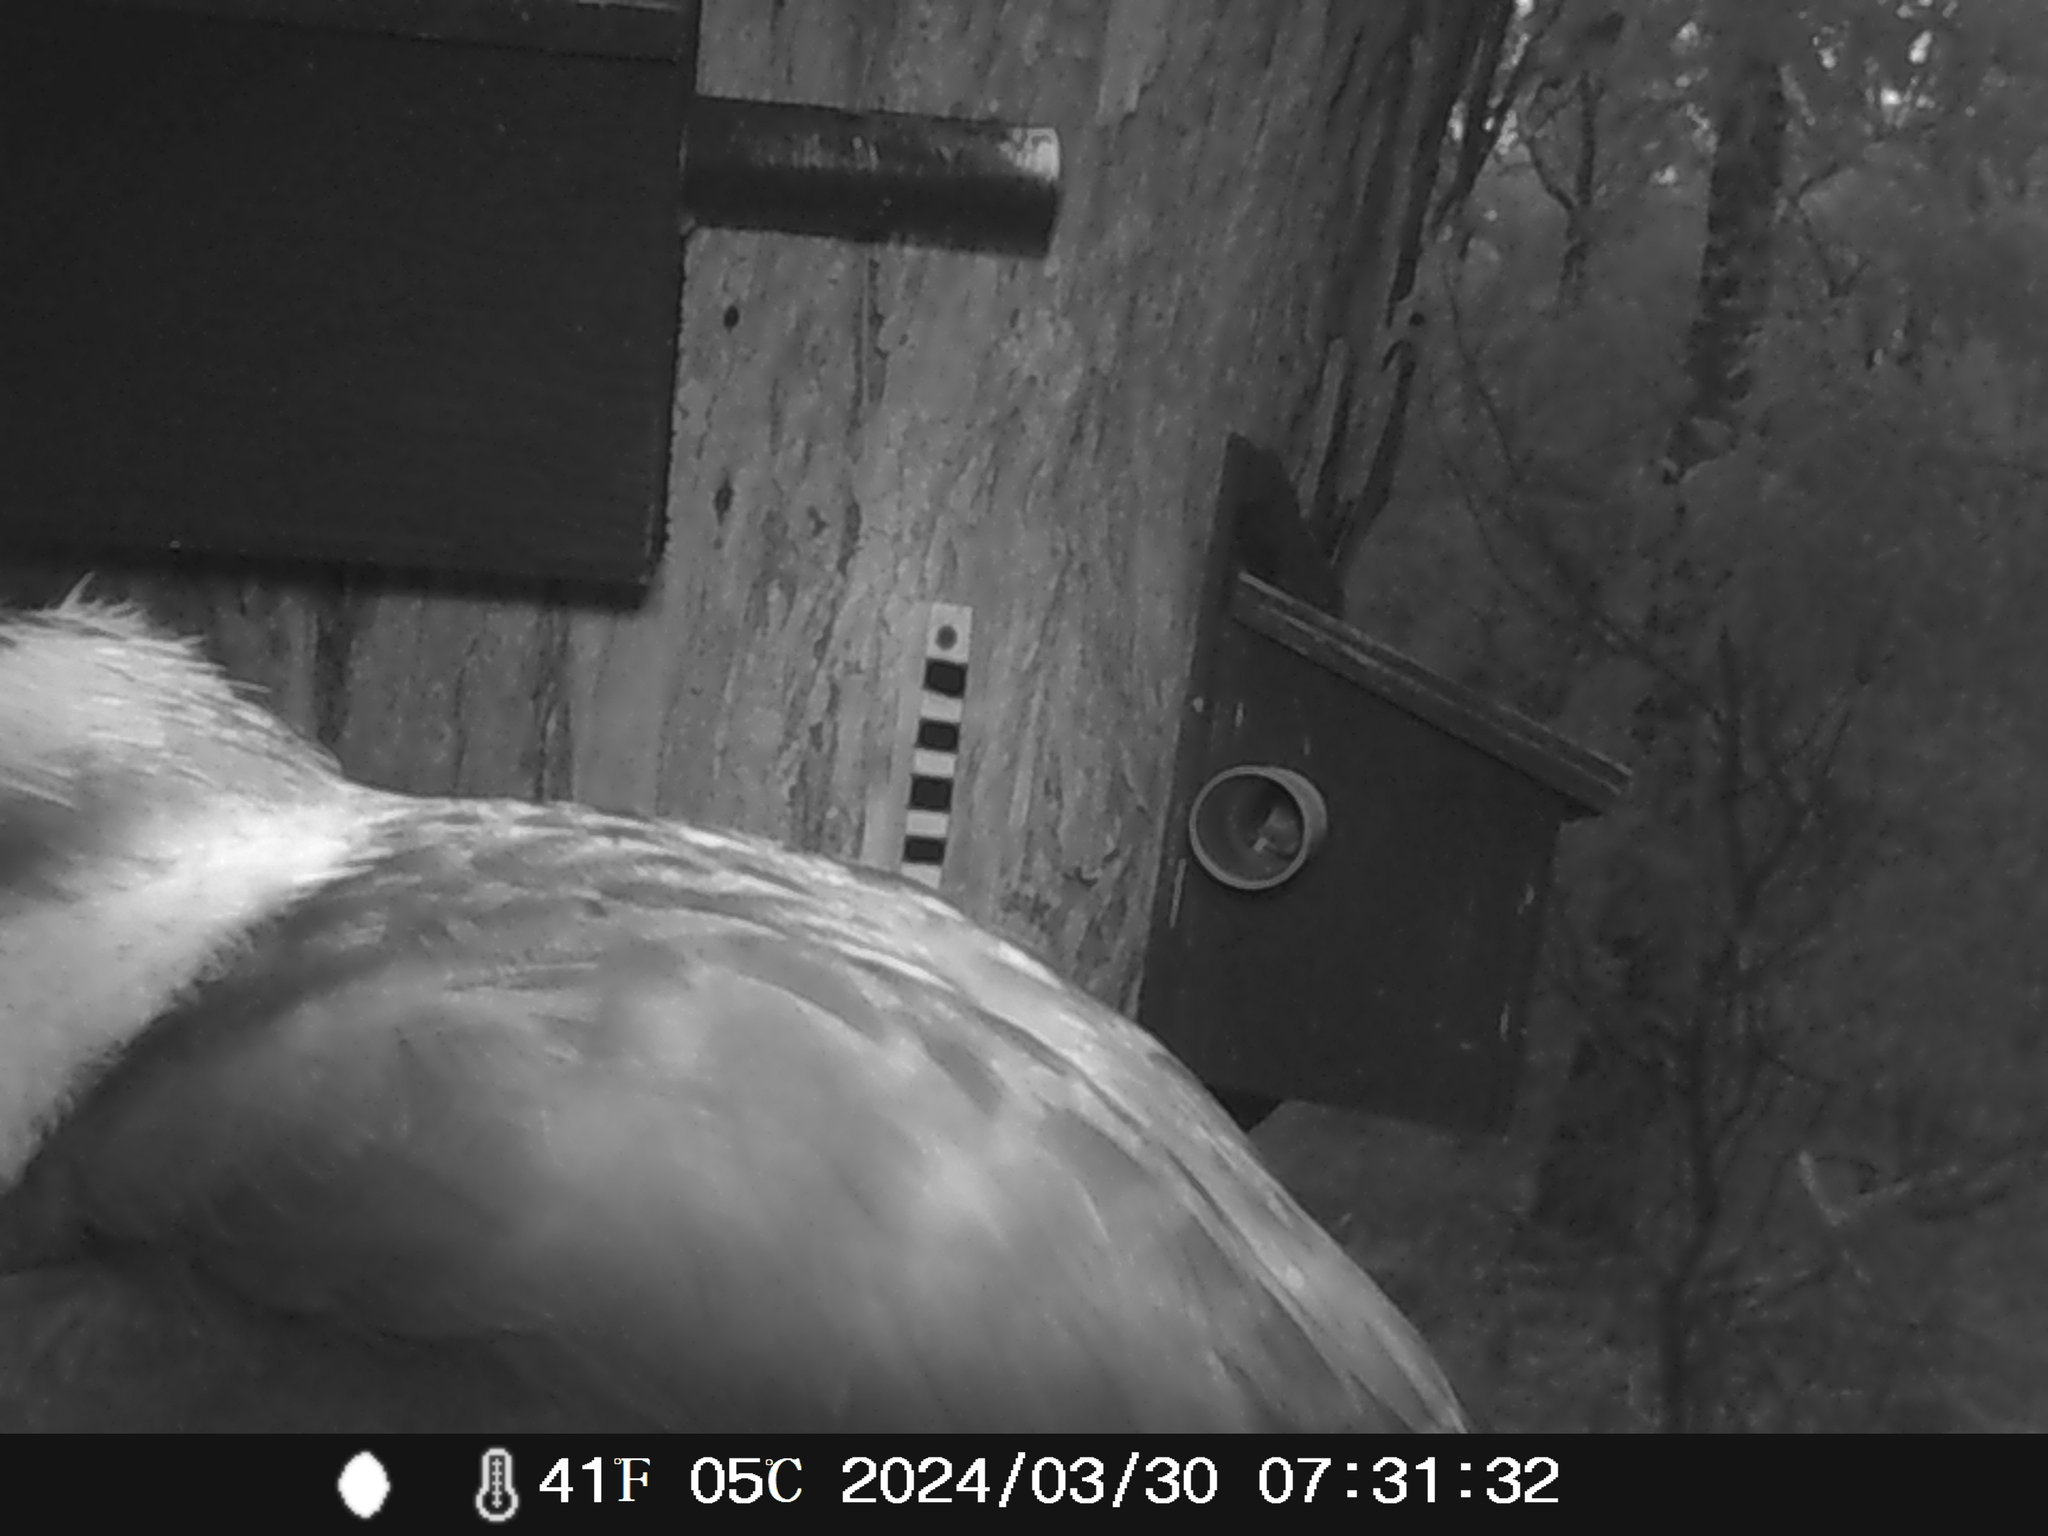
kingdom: Animalia
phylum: Chordata
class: Aves
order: Coraciiformes
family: Alcedinidae
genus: Dacelo
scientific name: Dacelo novaeguineae
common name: Laughing kookaburra
